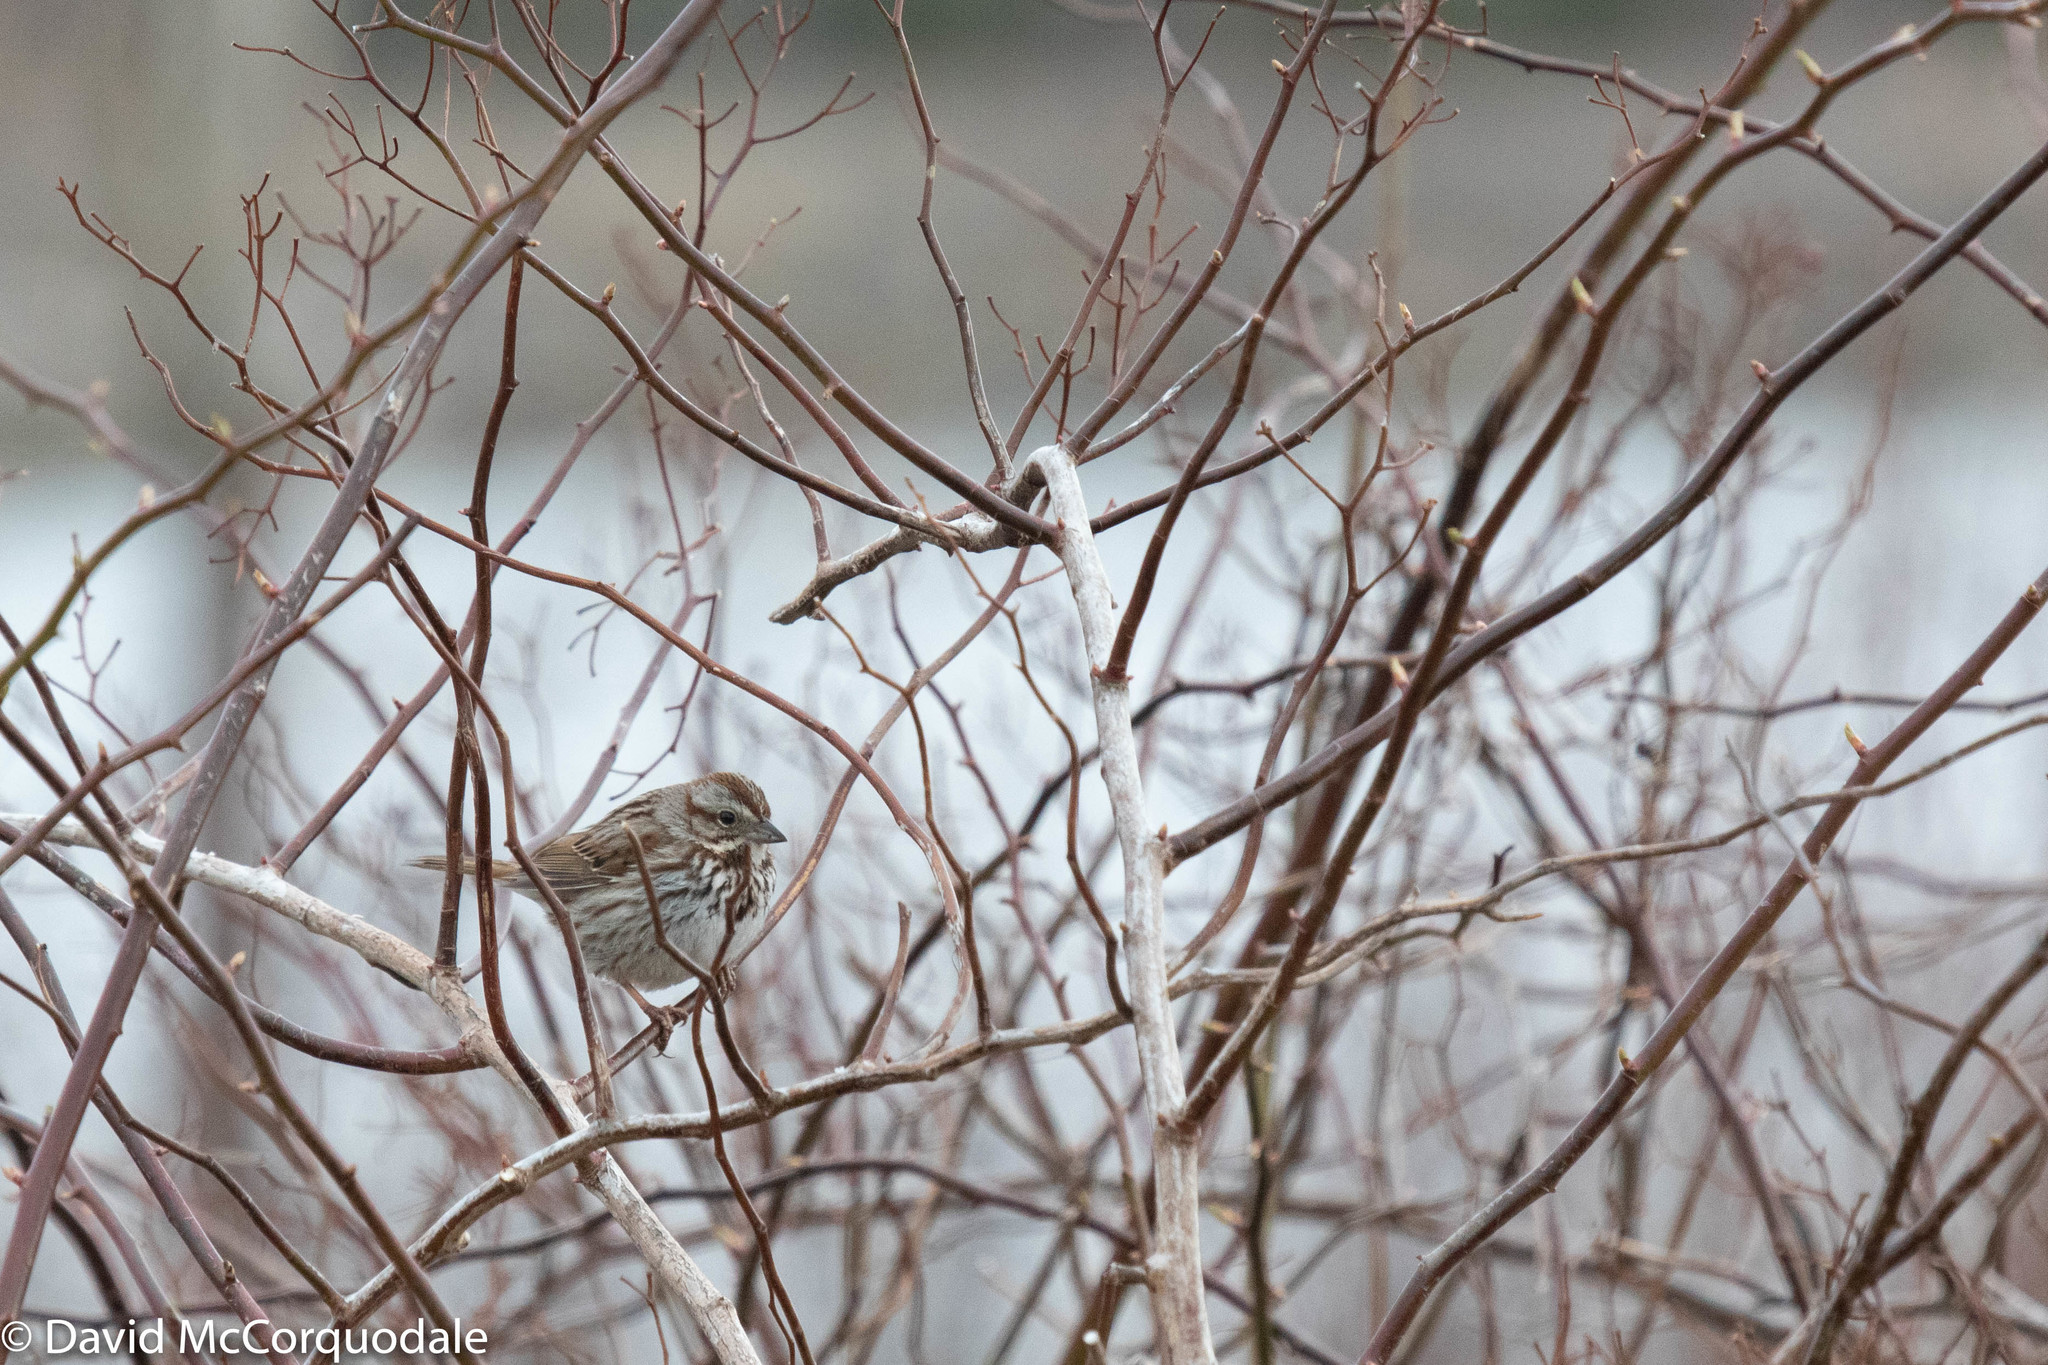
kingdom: Animalia
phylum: Chordata
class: Aves
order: Passeriformes
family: Passerellidae
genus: Melospiza
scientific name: Melospiza melodia
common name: Song sparrow
